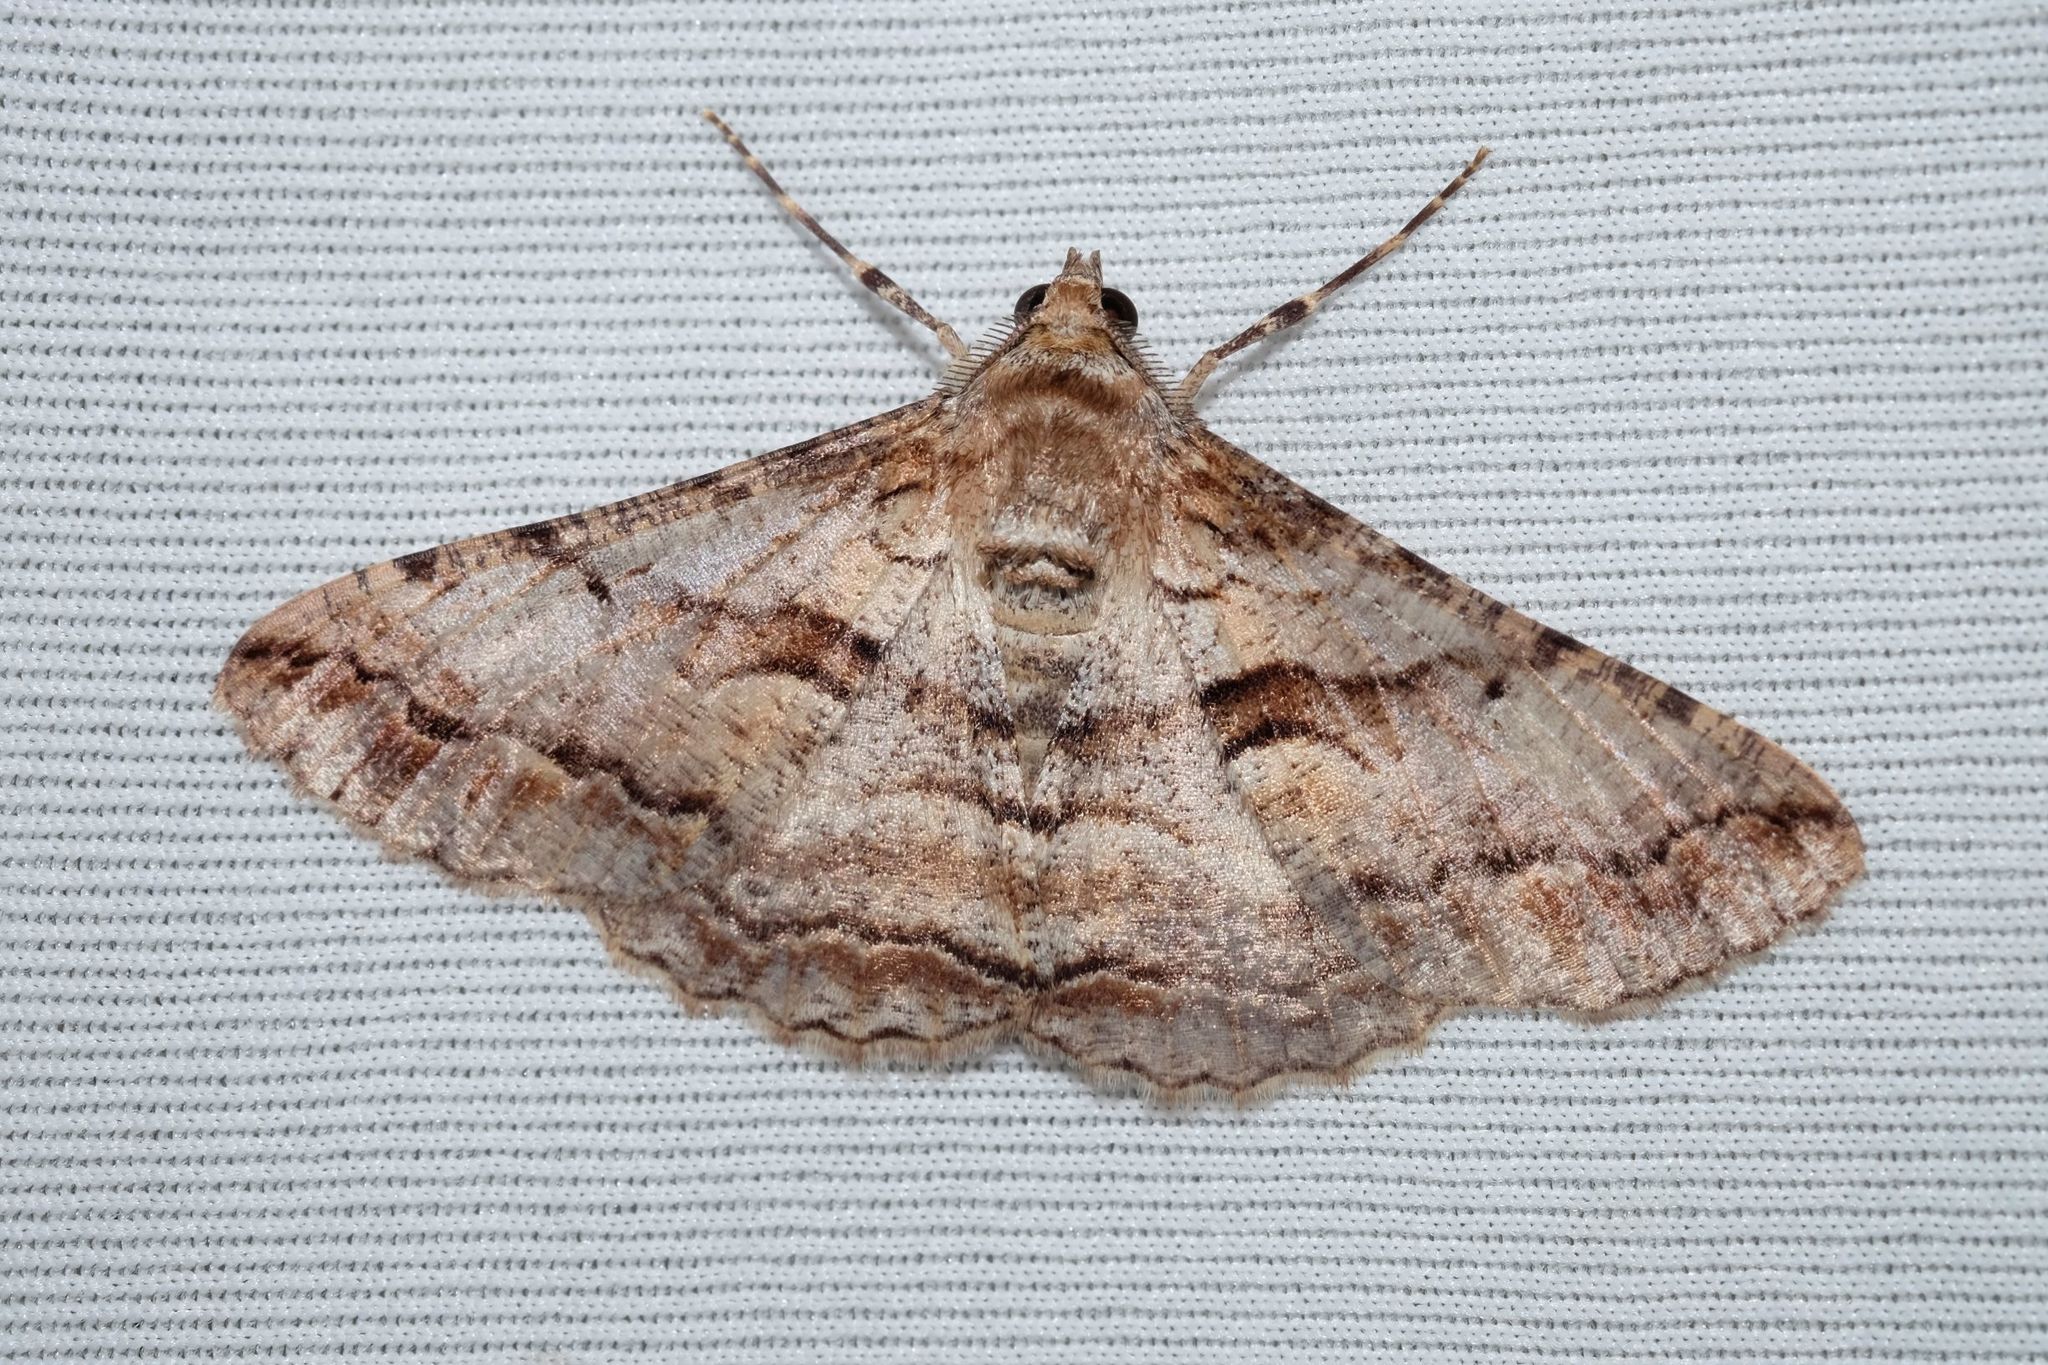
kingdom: Animalia
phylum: Arthropoda
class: Insecta
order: Lepidoptera
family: Geometridae
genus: Gastrinodes
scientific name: Gastrinodes bitaeniaria
